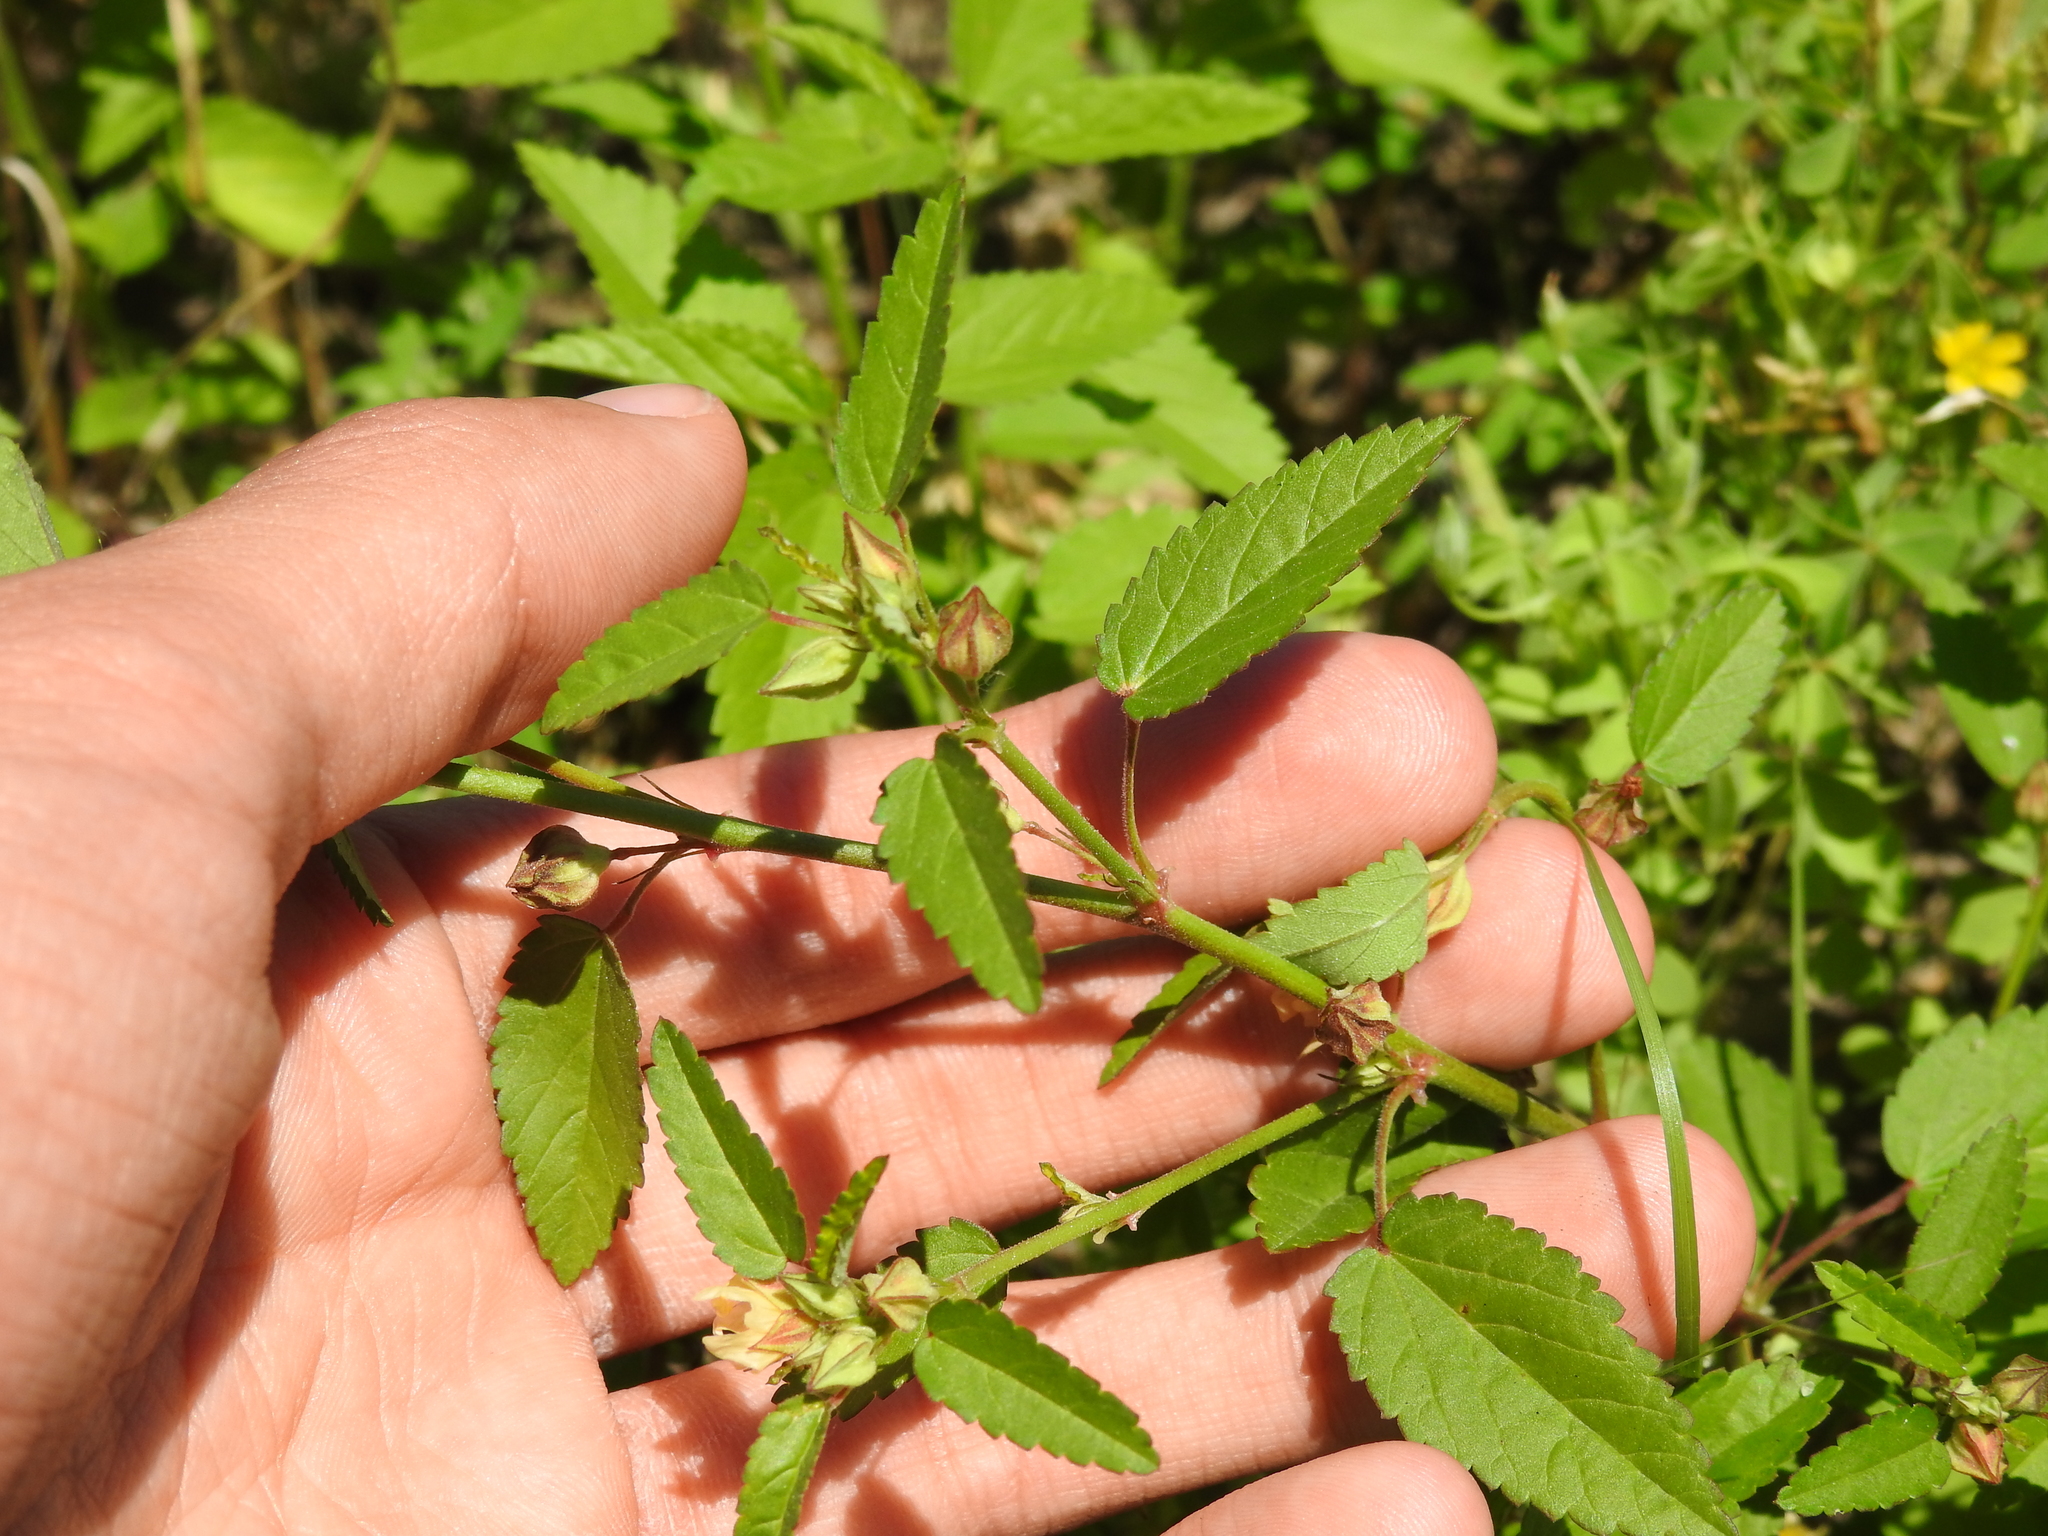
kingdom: Plantae
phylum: Tracheophyta
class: Magnoliopsida
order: Malvales
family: Malvaceae
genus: Sida
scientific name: Sida spinosa
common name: Prickly fanpetals
